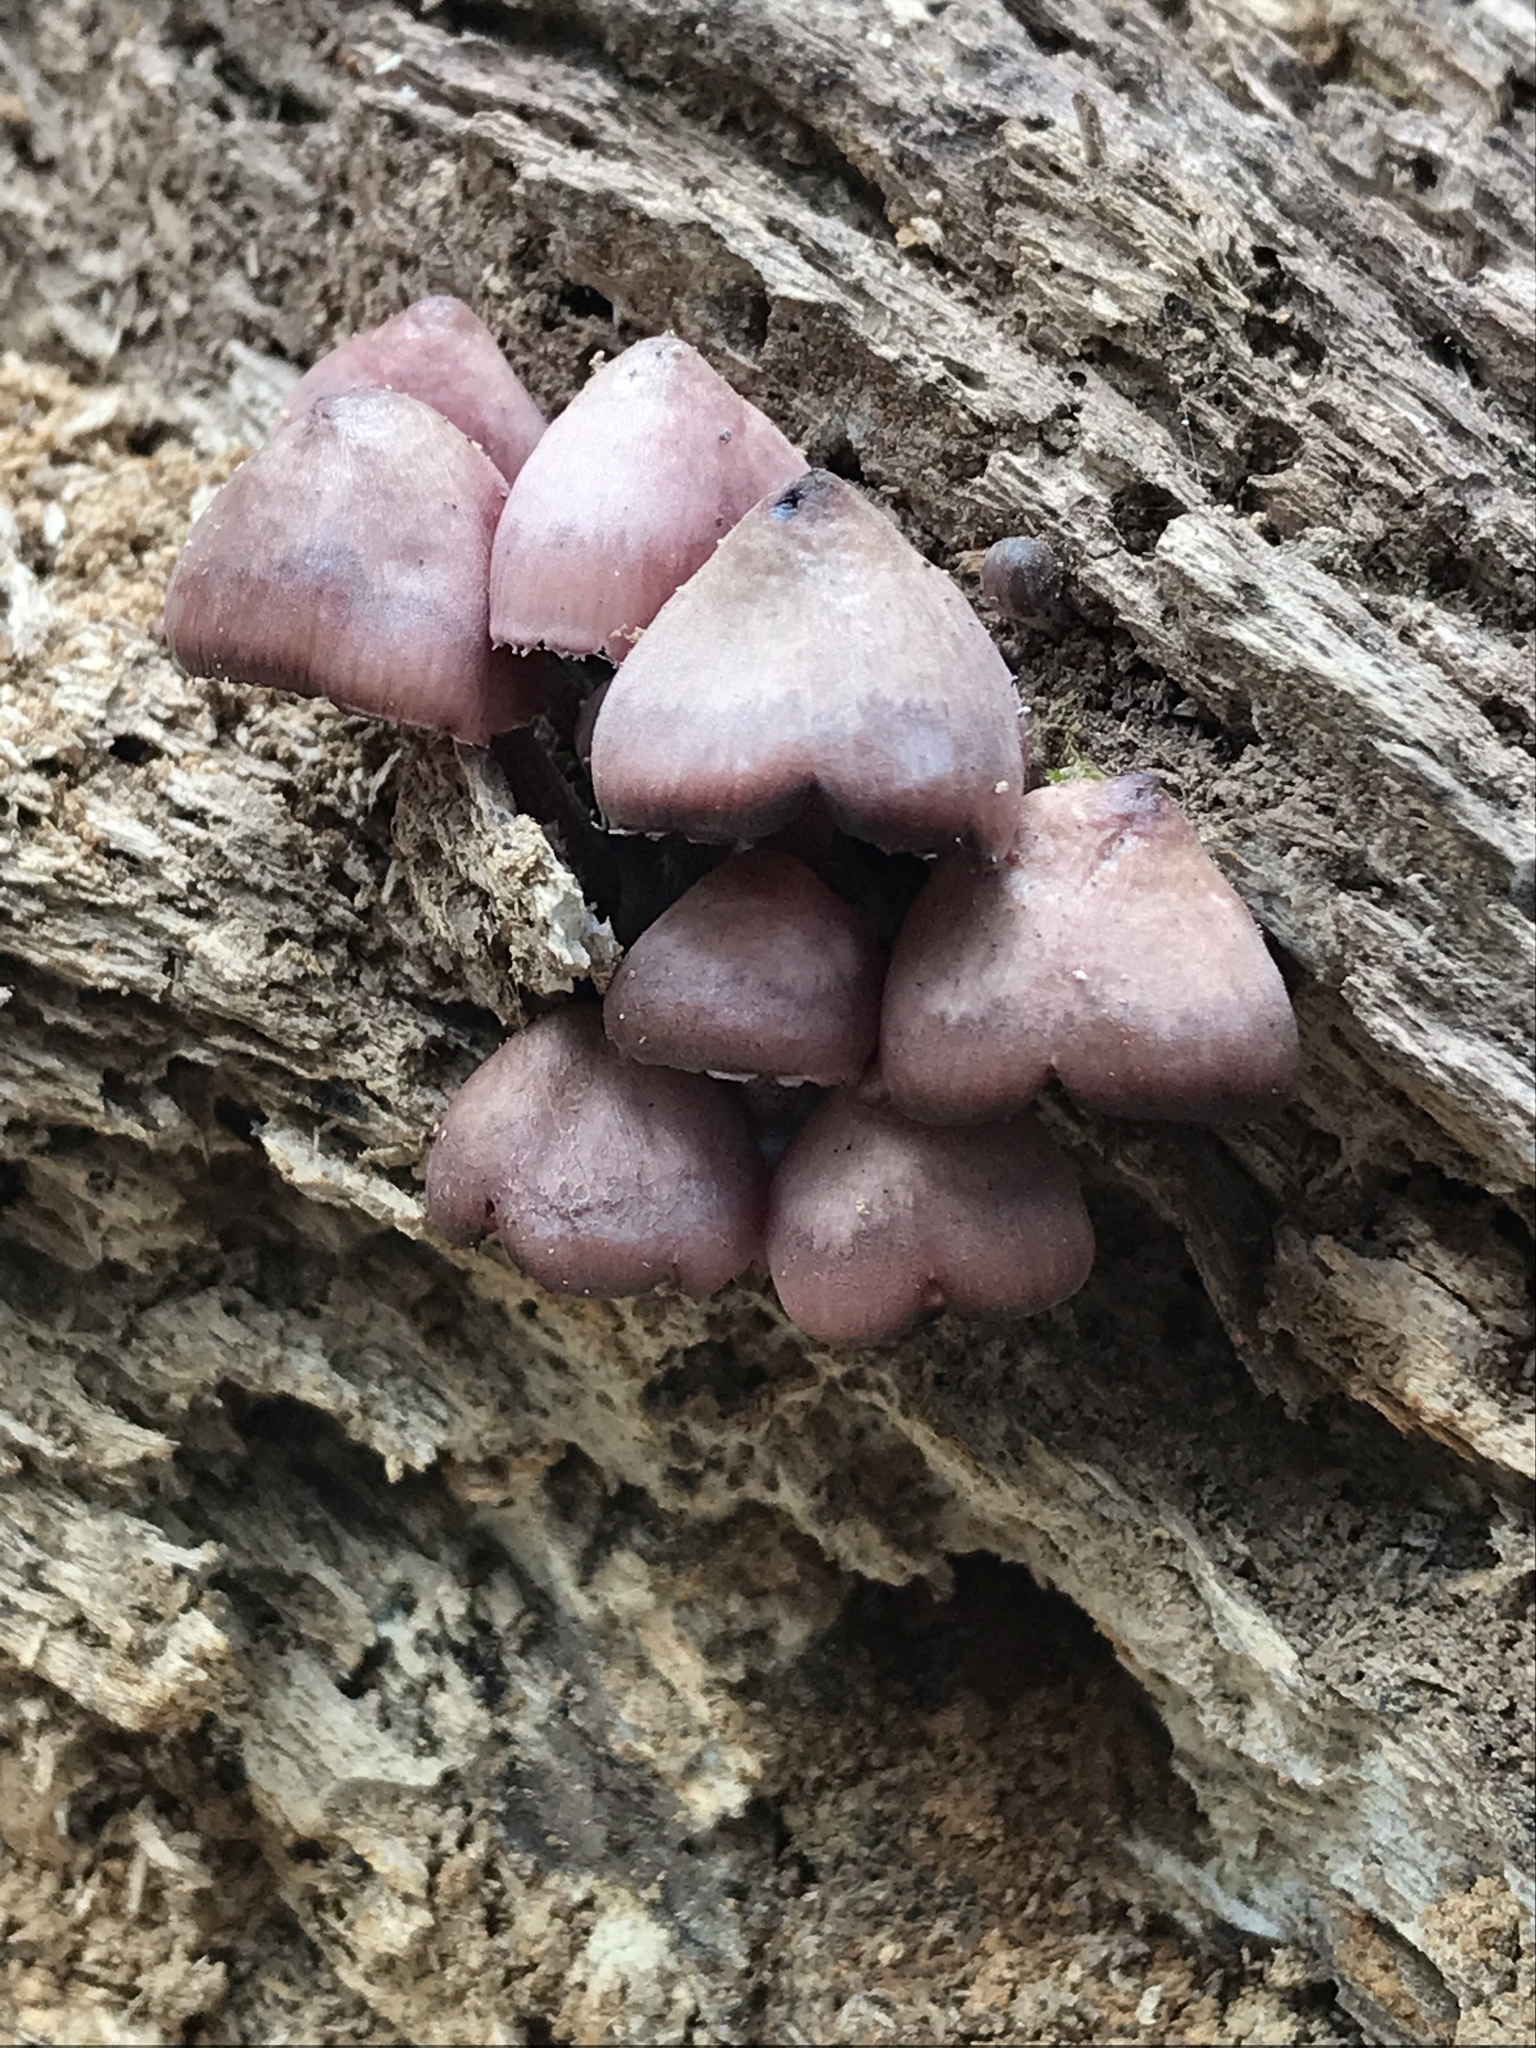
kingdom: Fungi
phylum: Basidiomycota
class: Agaricomycetes
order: Agaricales
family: Mycenaceae
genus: Mycena
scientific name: Mycena haematopus
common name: Burgundydrop bonnet
